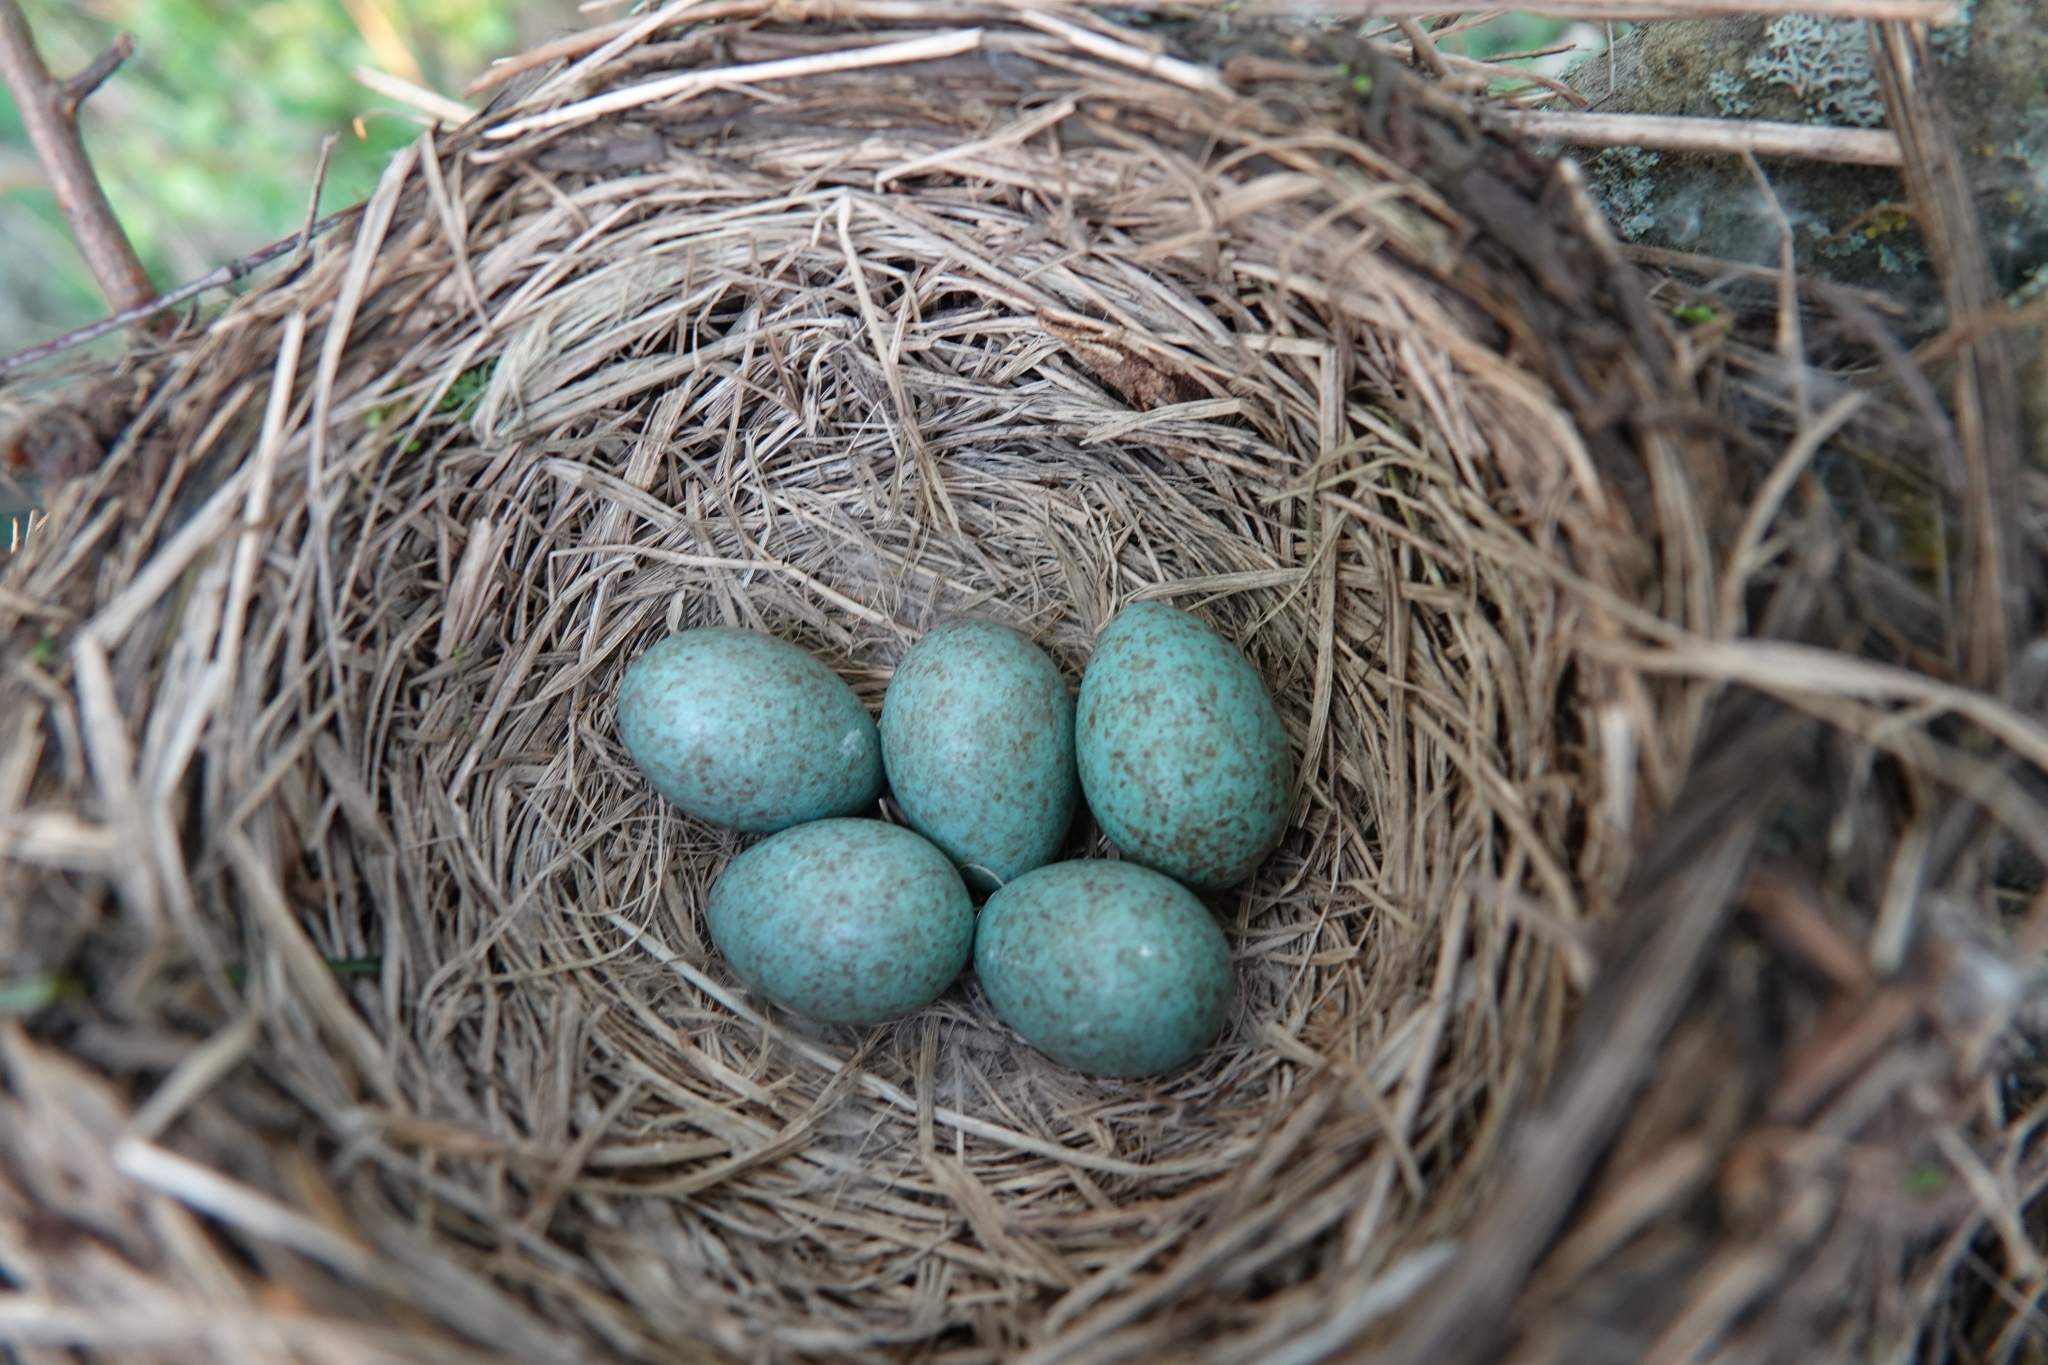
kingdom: Animalia
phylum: Chordata
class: Aves
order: Passeriformes
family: Turdidae
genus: Turdus
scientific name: Turdus pilaris
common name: Fieldfare
